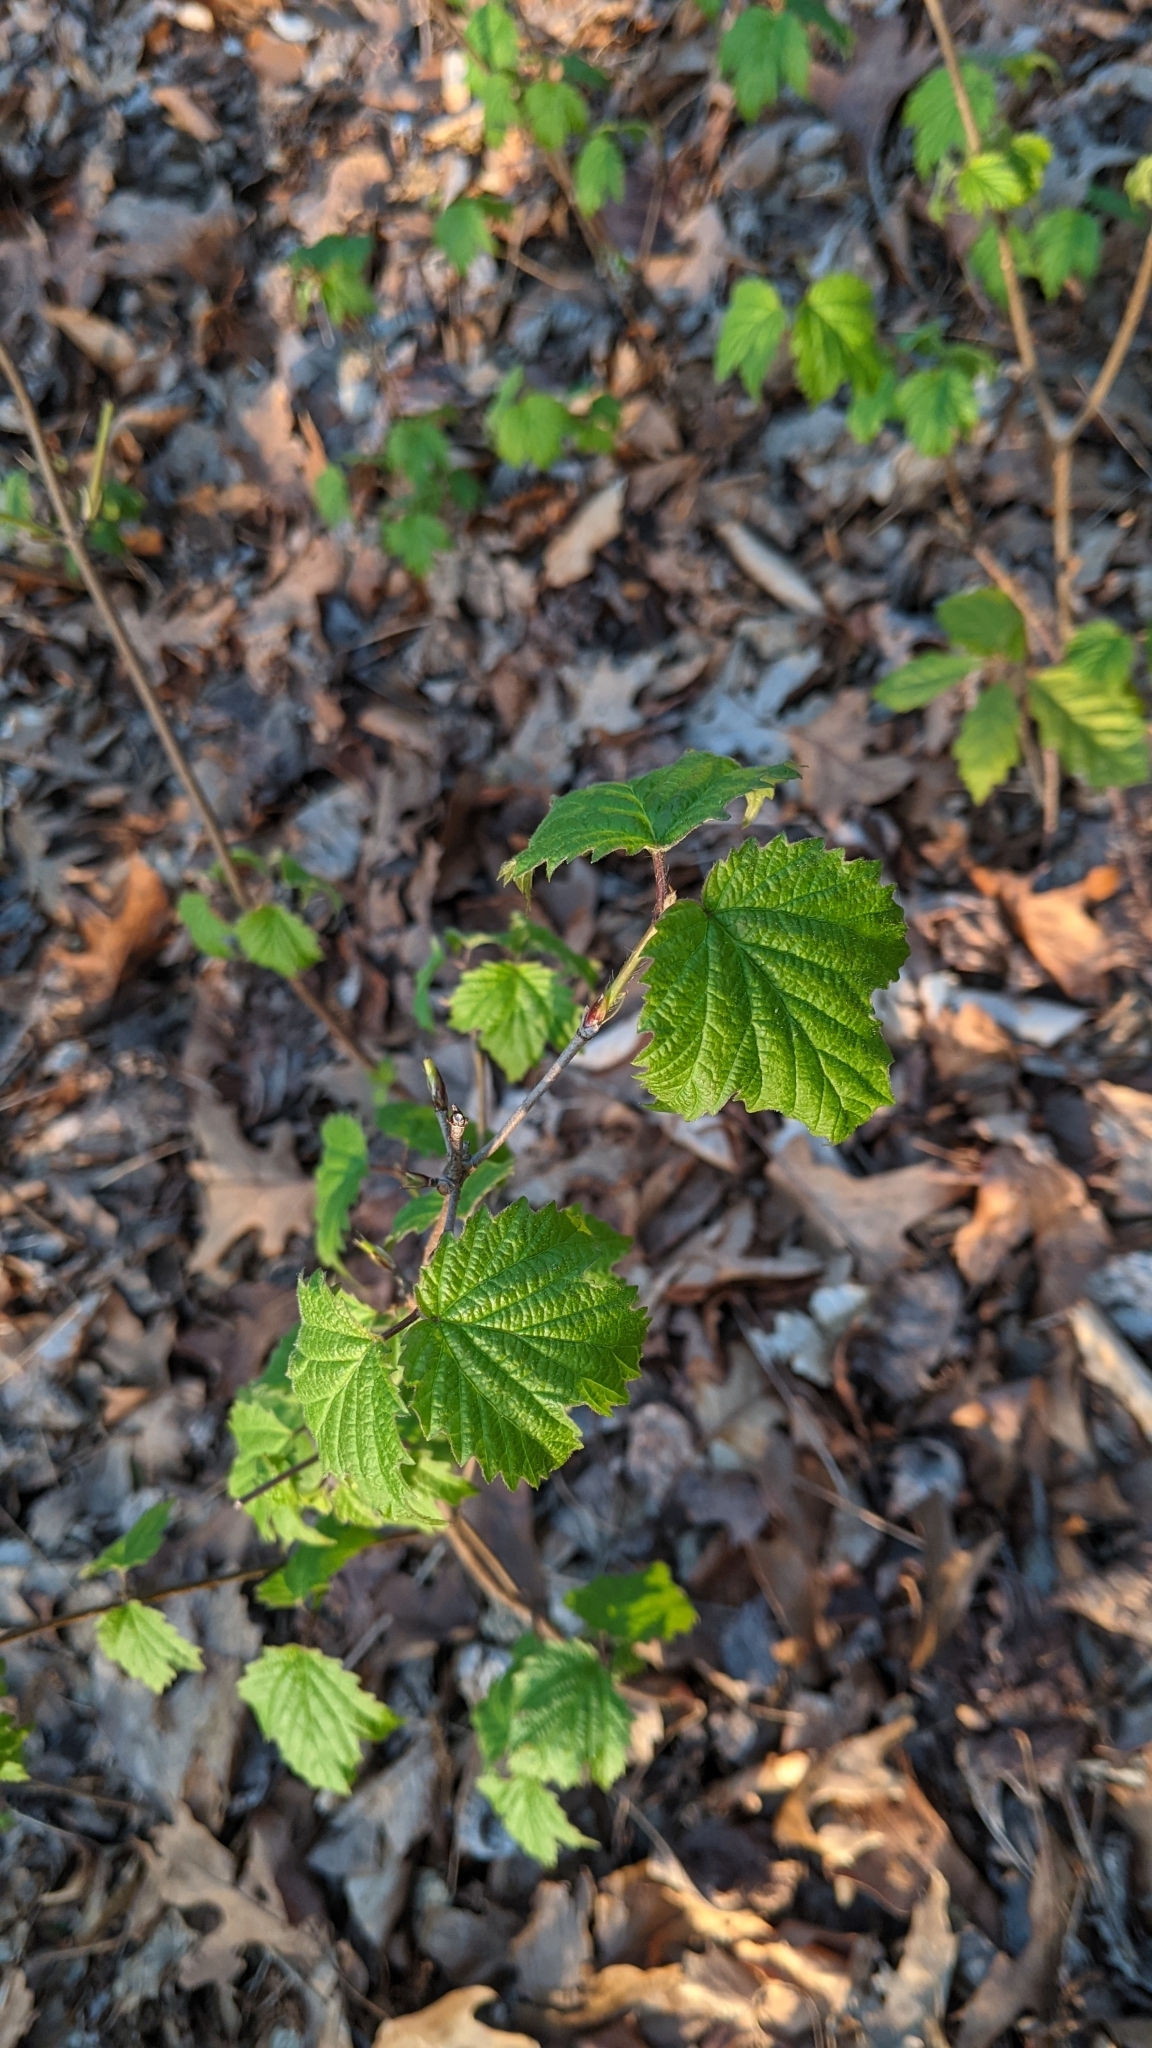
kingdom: Plantae
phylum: Tracheophyta
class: Magnoliopsida
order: Dipsacales
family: Viburnaceae
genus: Viburnum
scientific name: Viburnum acerifolium
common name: Dockmackie
